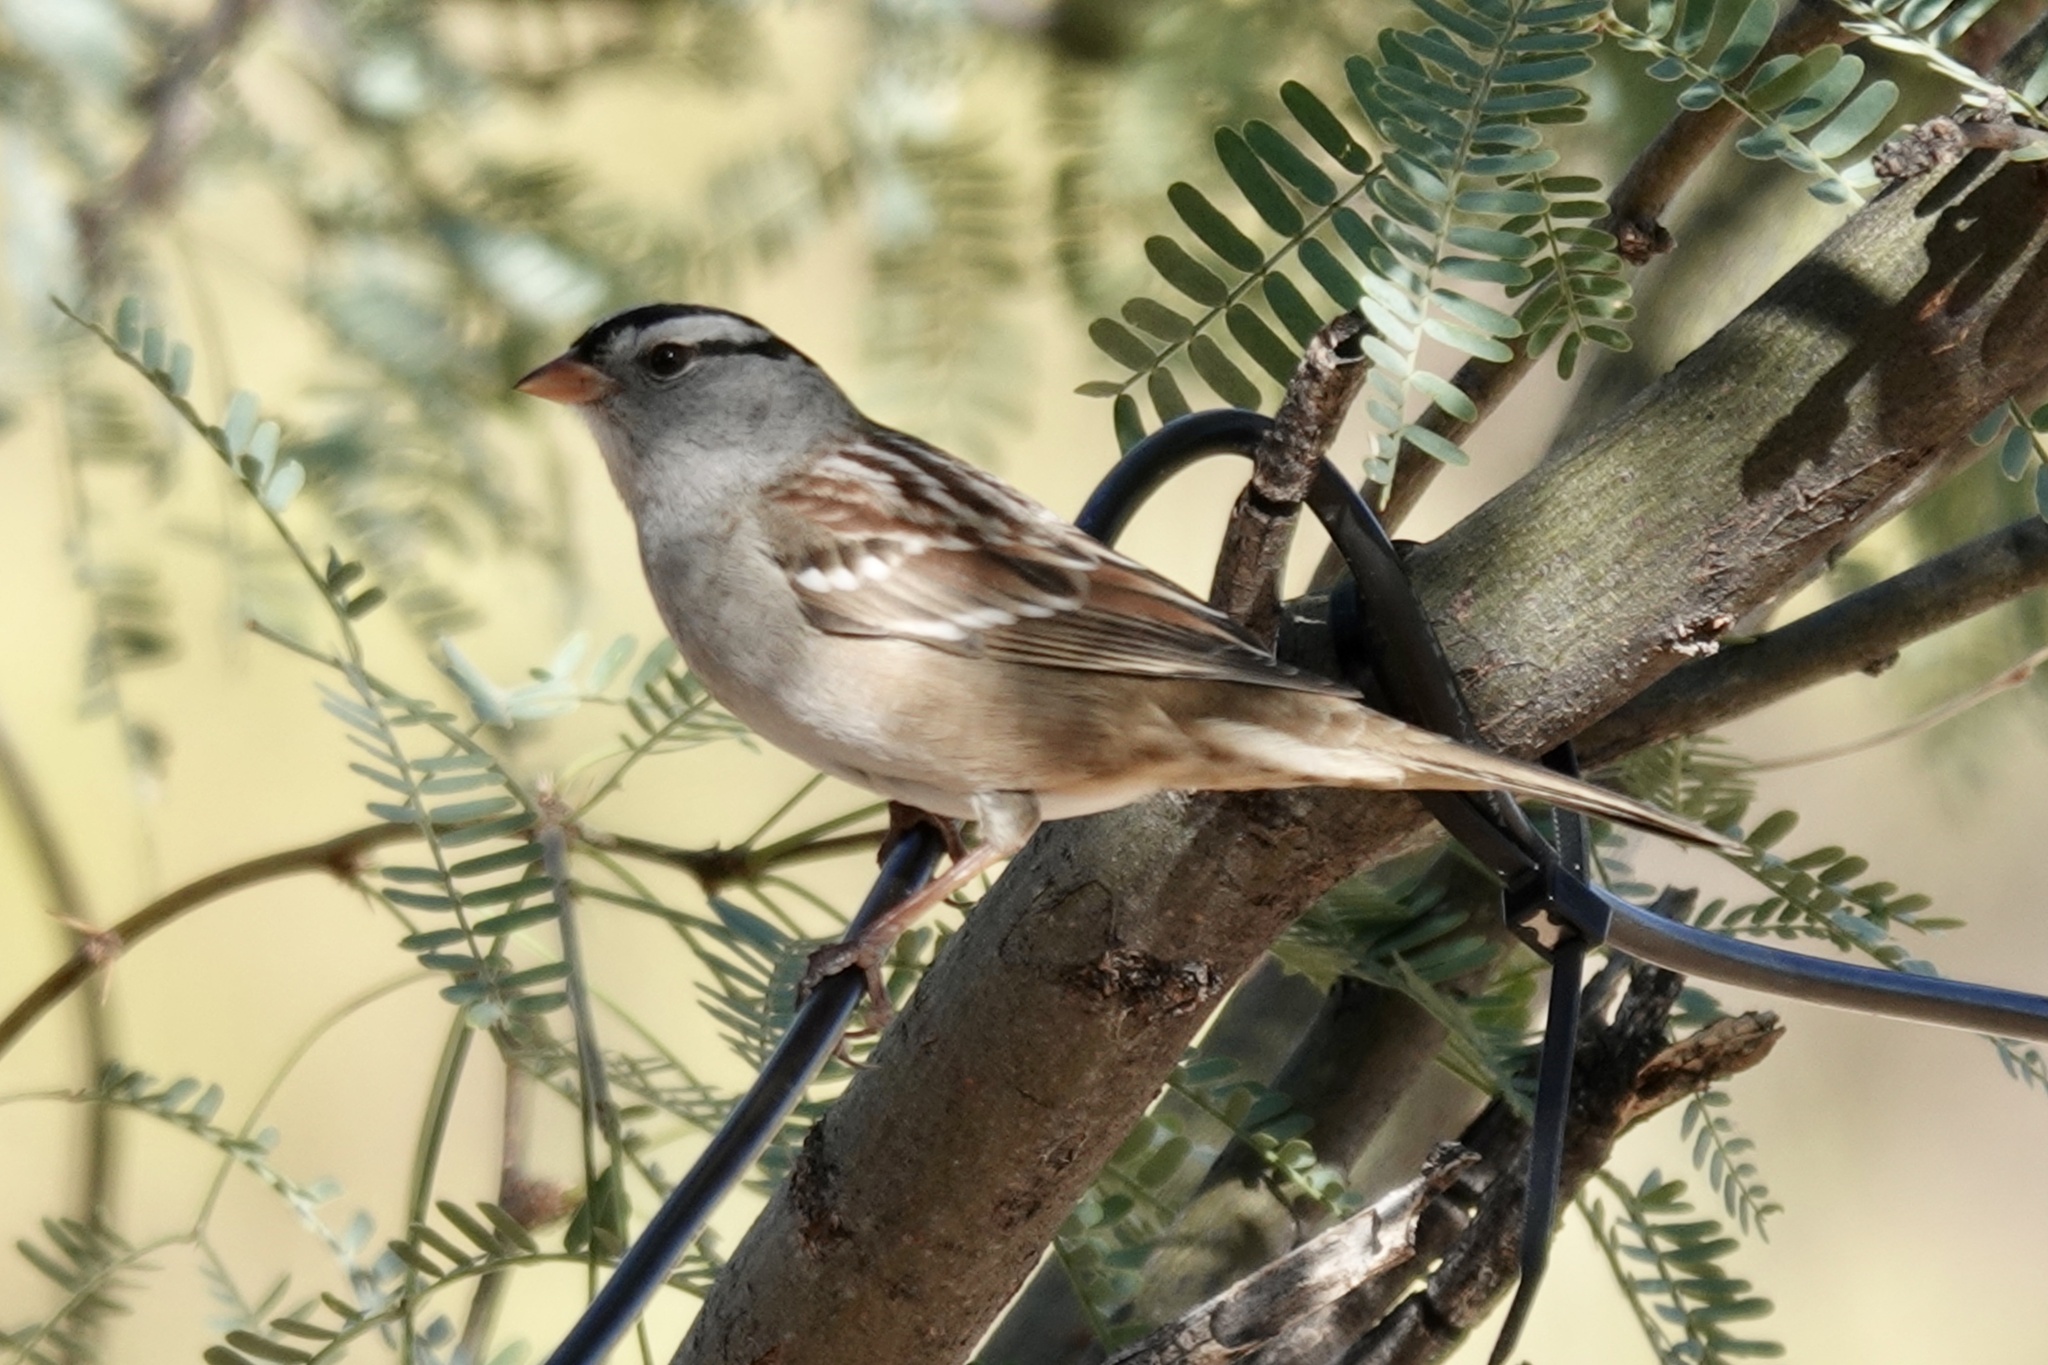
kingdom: Animalia
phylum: Chordata
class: Aves
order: Passeriformes
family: Passerellidae
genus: Zonotrichia
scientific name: Zonotrichia leucophrys
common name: White-crowned sparrow
